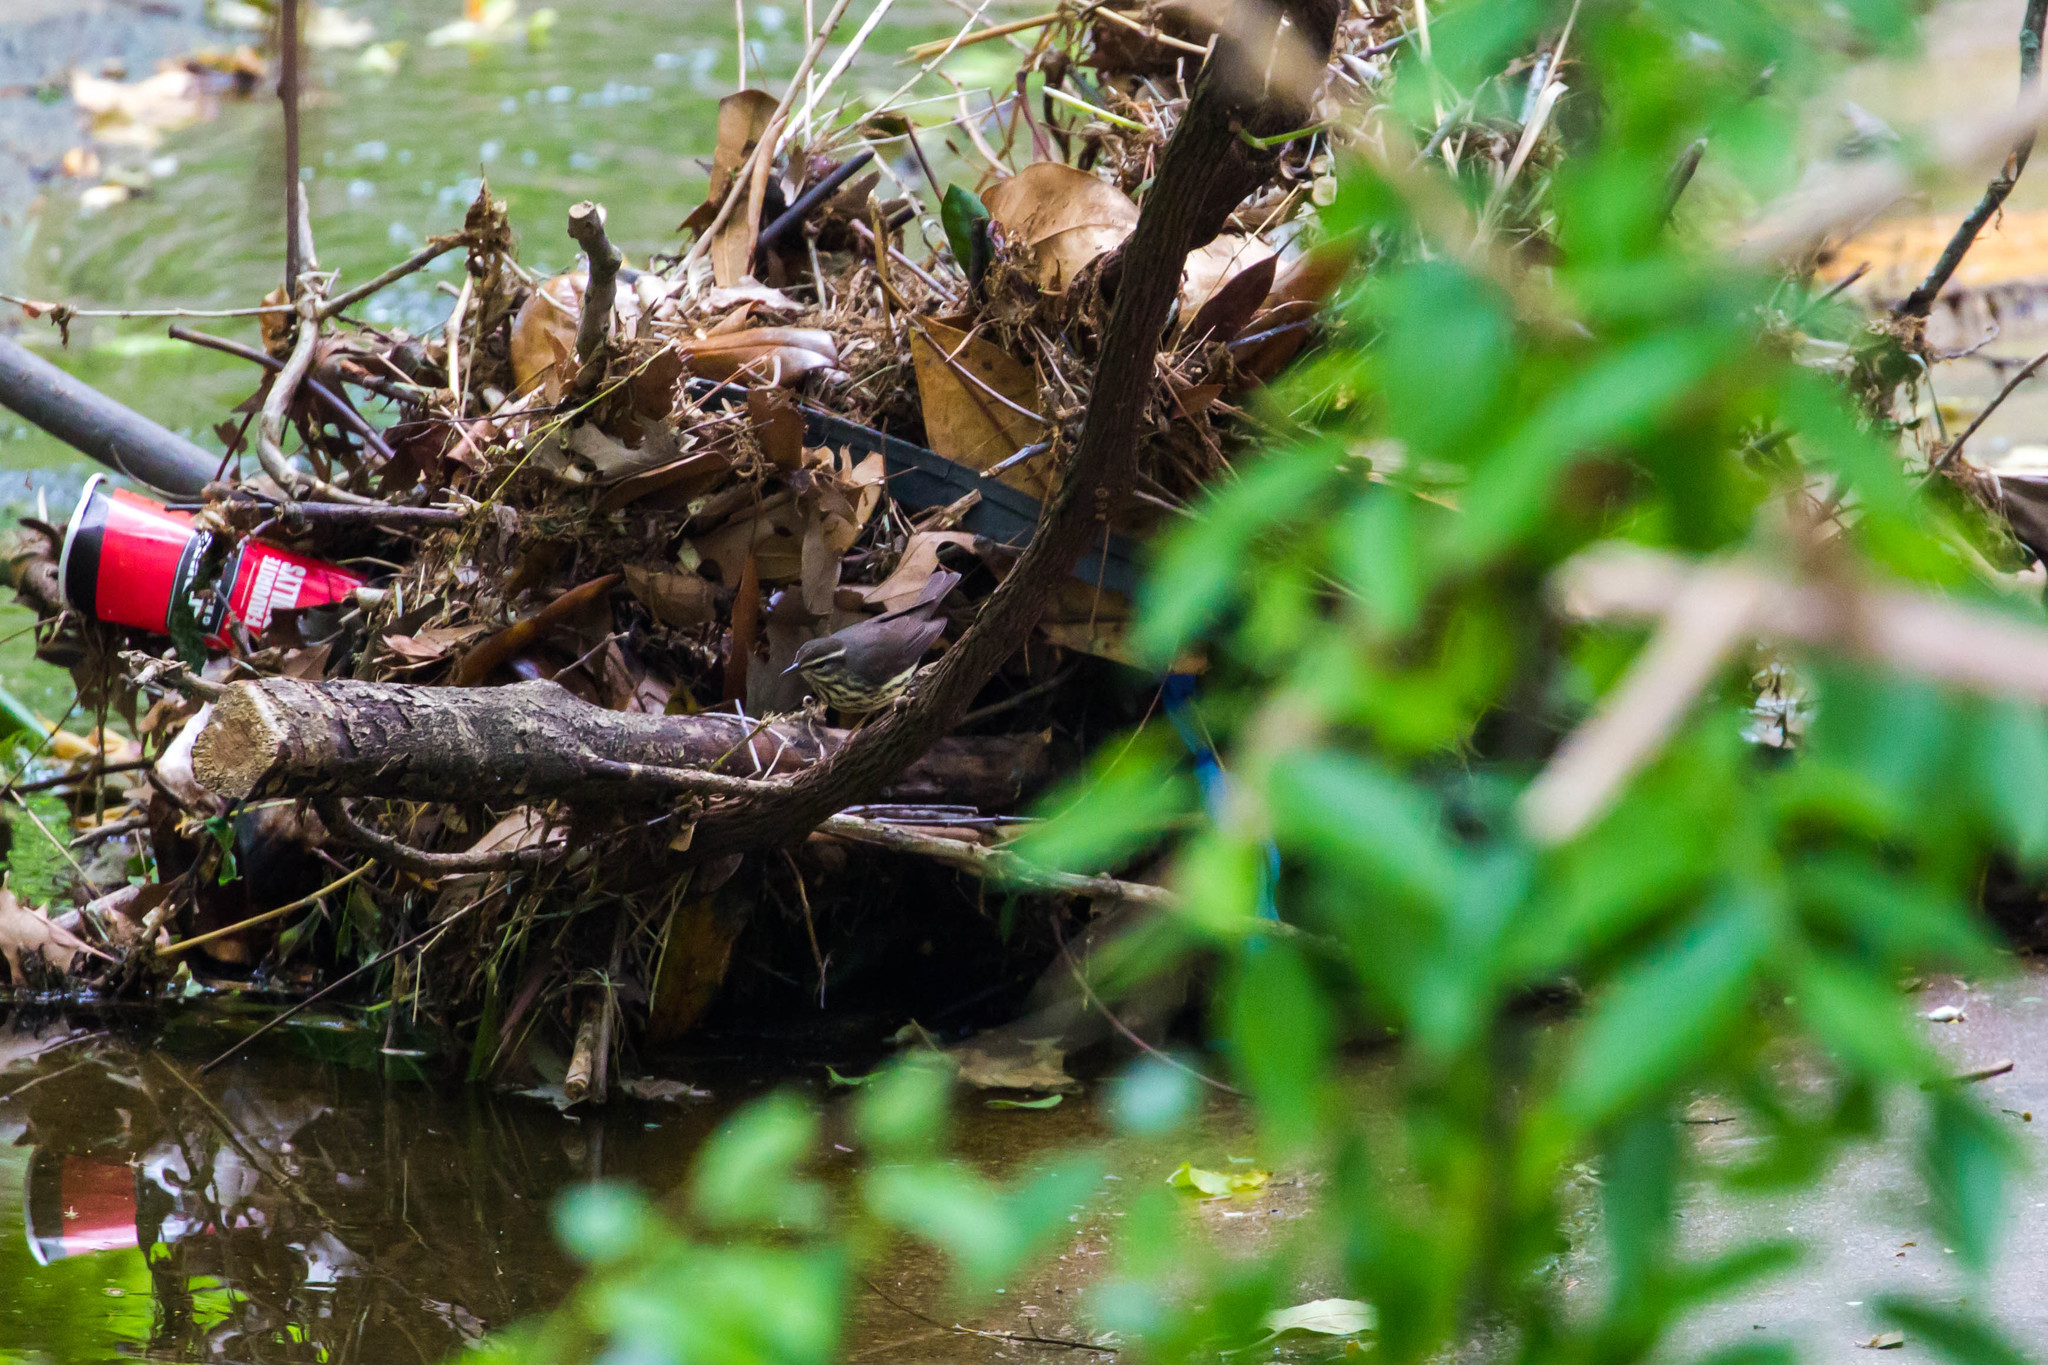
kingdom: Animalia
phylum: Chordata
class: Aves
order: Passeriformes
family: Parulidae
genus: Parkesia
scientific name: Parkesia motacilla
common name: Louisiana waterthrush
